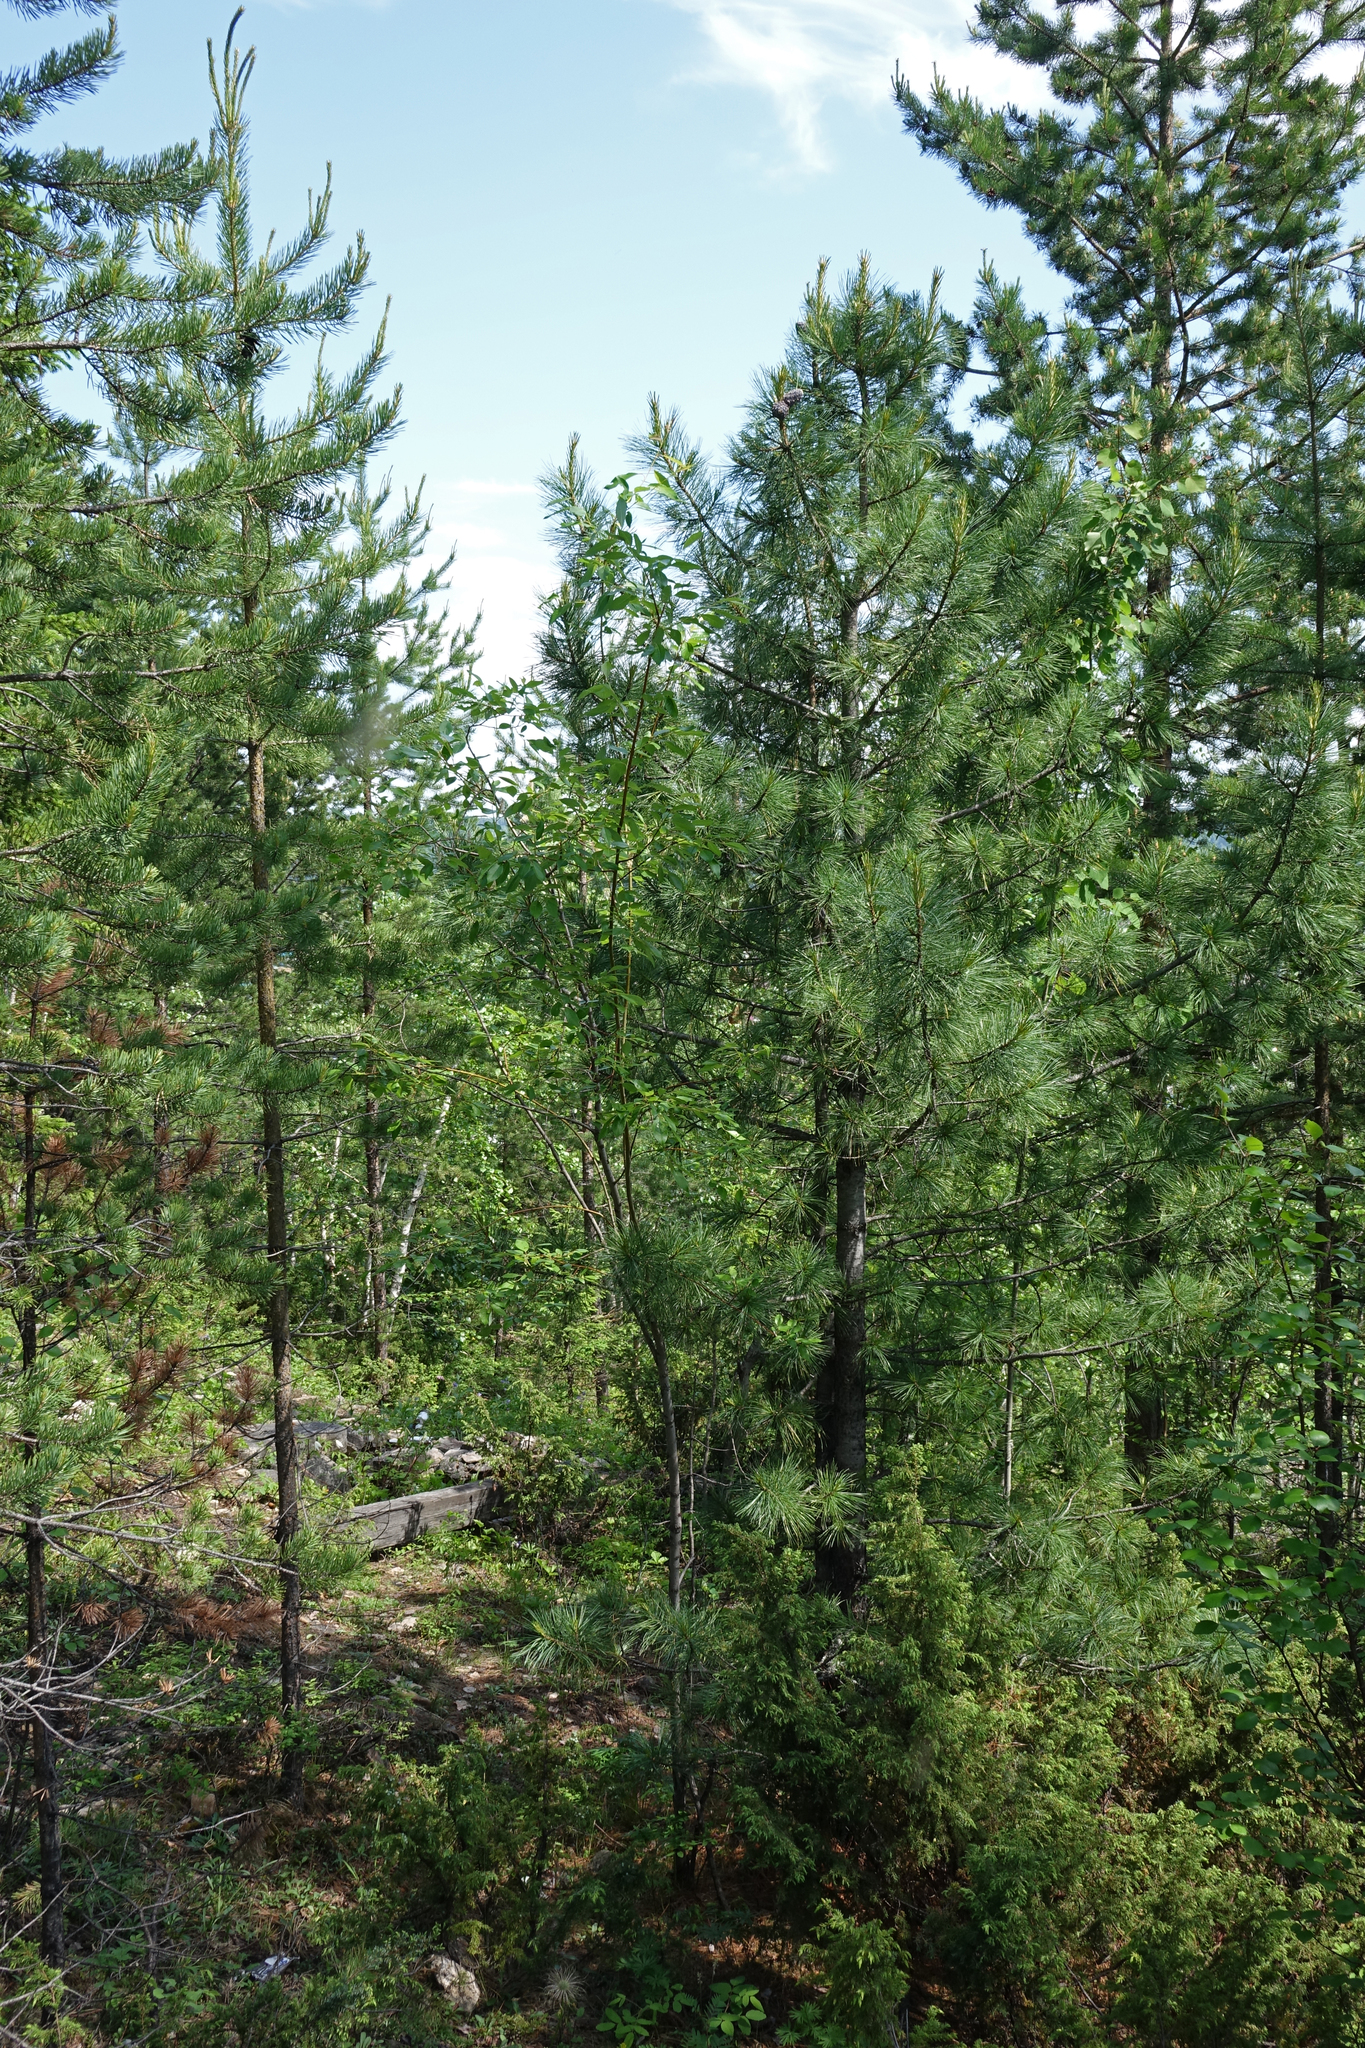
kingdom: Plantae
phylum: Tracheophyta
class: Pinopsida
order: Pinales
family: Pinaceae
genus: Pinus
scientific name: Pinus sibirica
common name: Siberian pine
